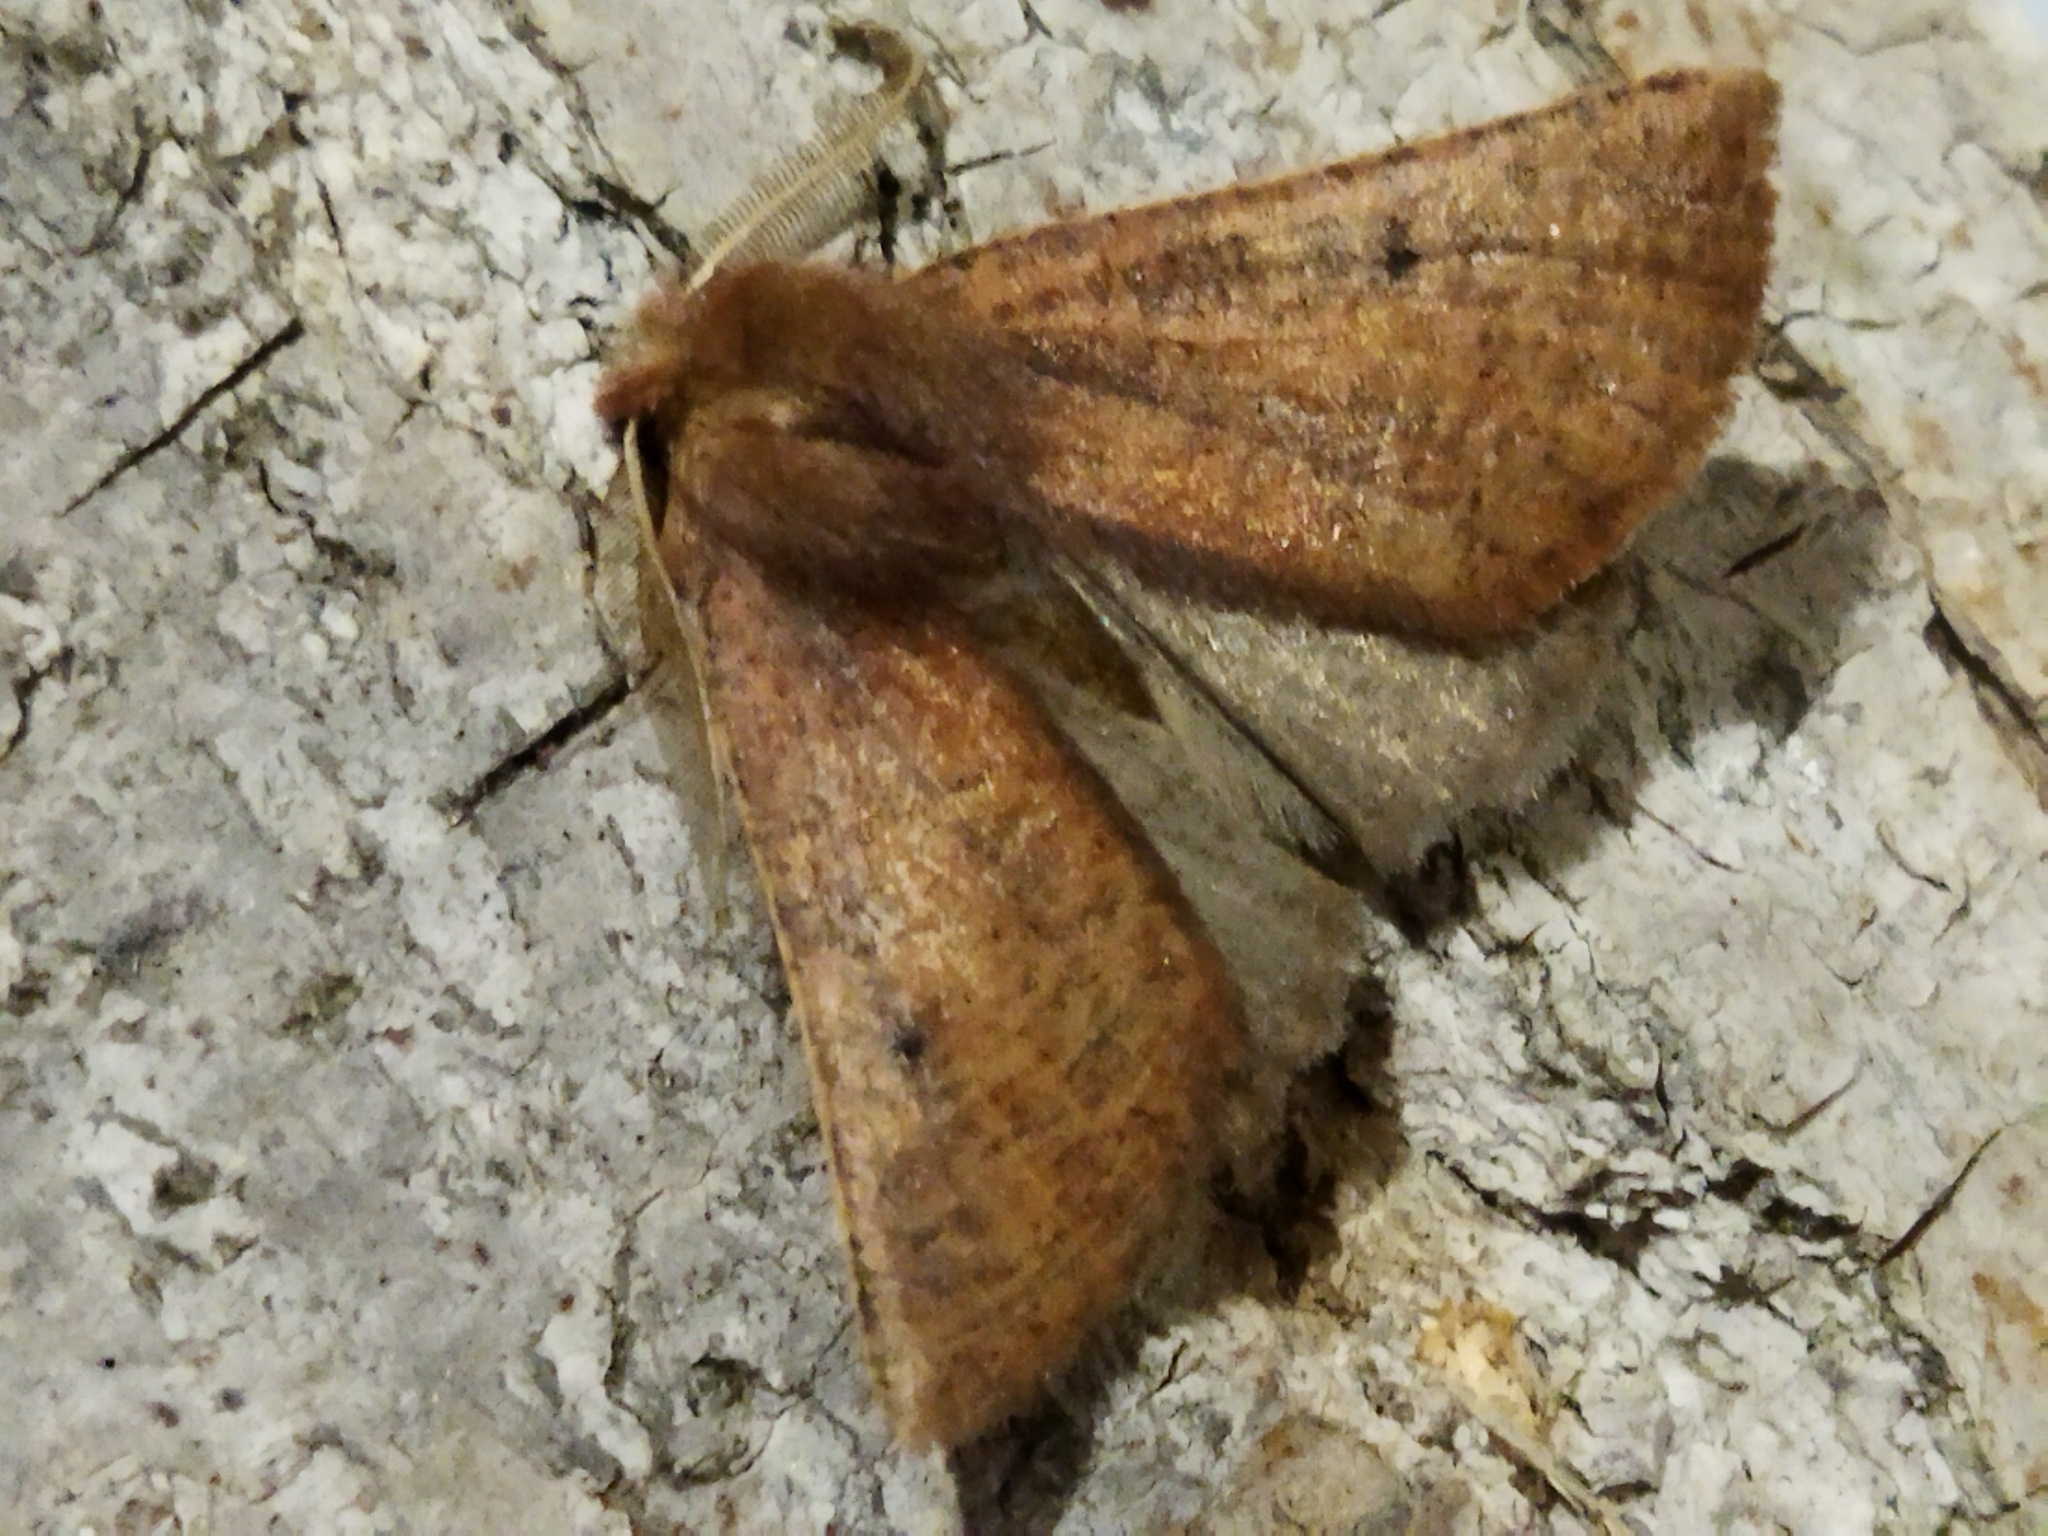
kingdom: Animalia
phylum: Arthropoda
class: Insecta
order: Lepidoptera
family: Geometridae
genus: Dasycorsa
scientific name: Dasycorsa modesta
